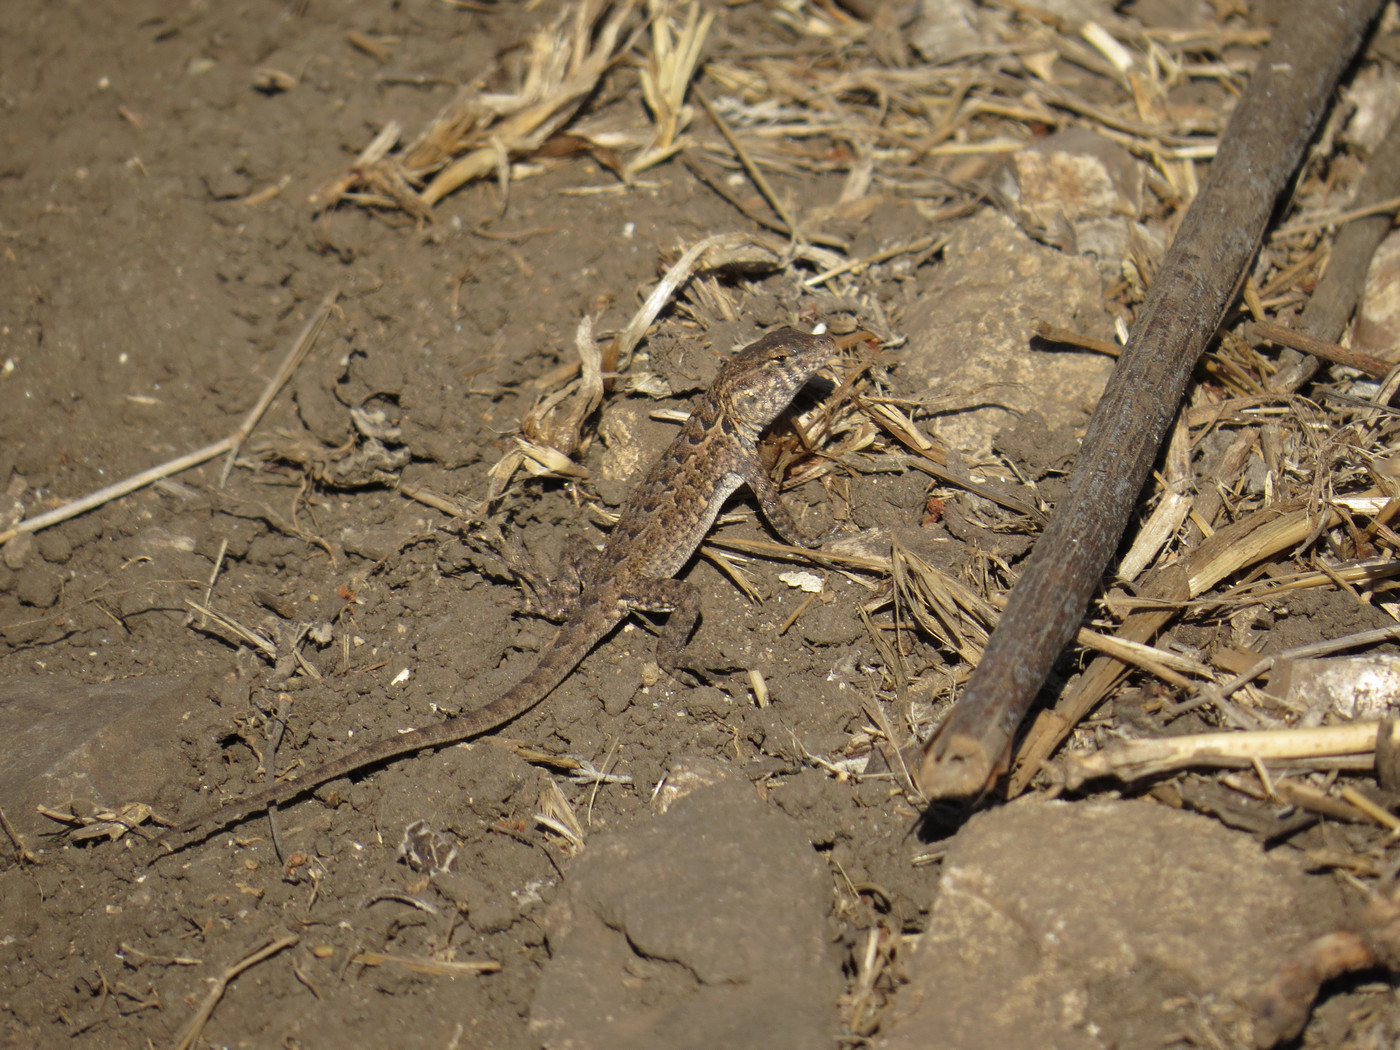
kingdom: Animalia
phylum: Chordata
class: Squamata
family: Phrynosomatidae
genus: Uta
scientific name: Uta stansburiana
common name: Side-blotched lizard
